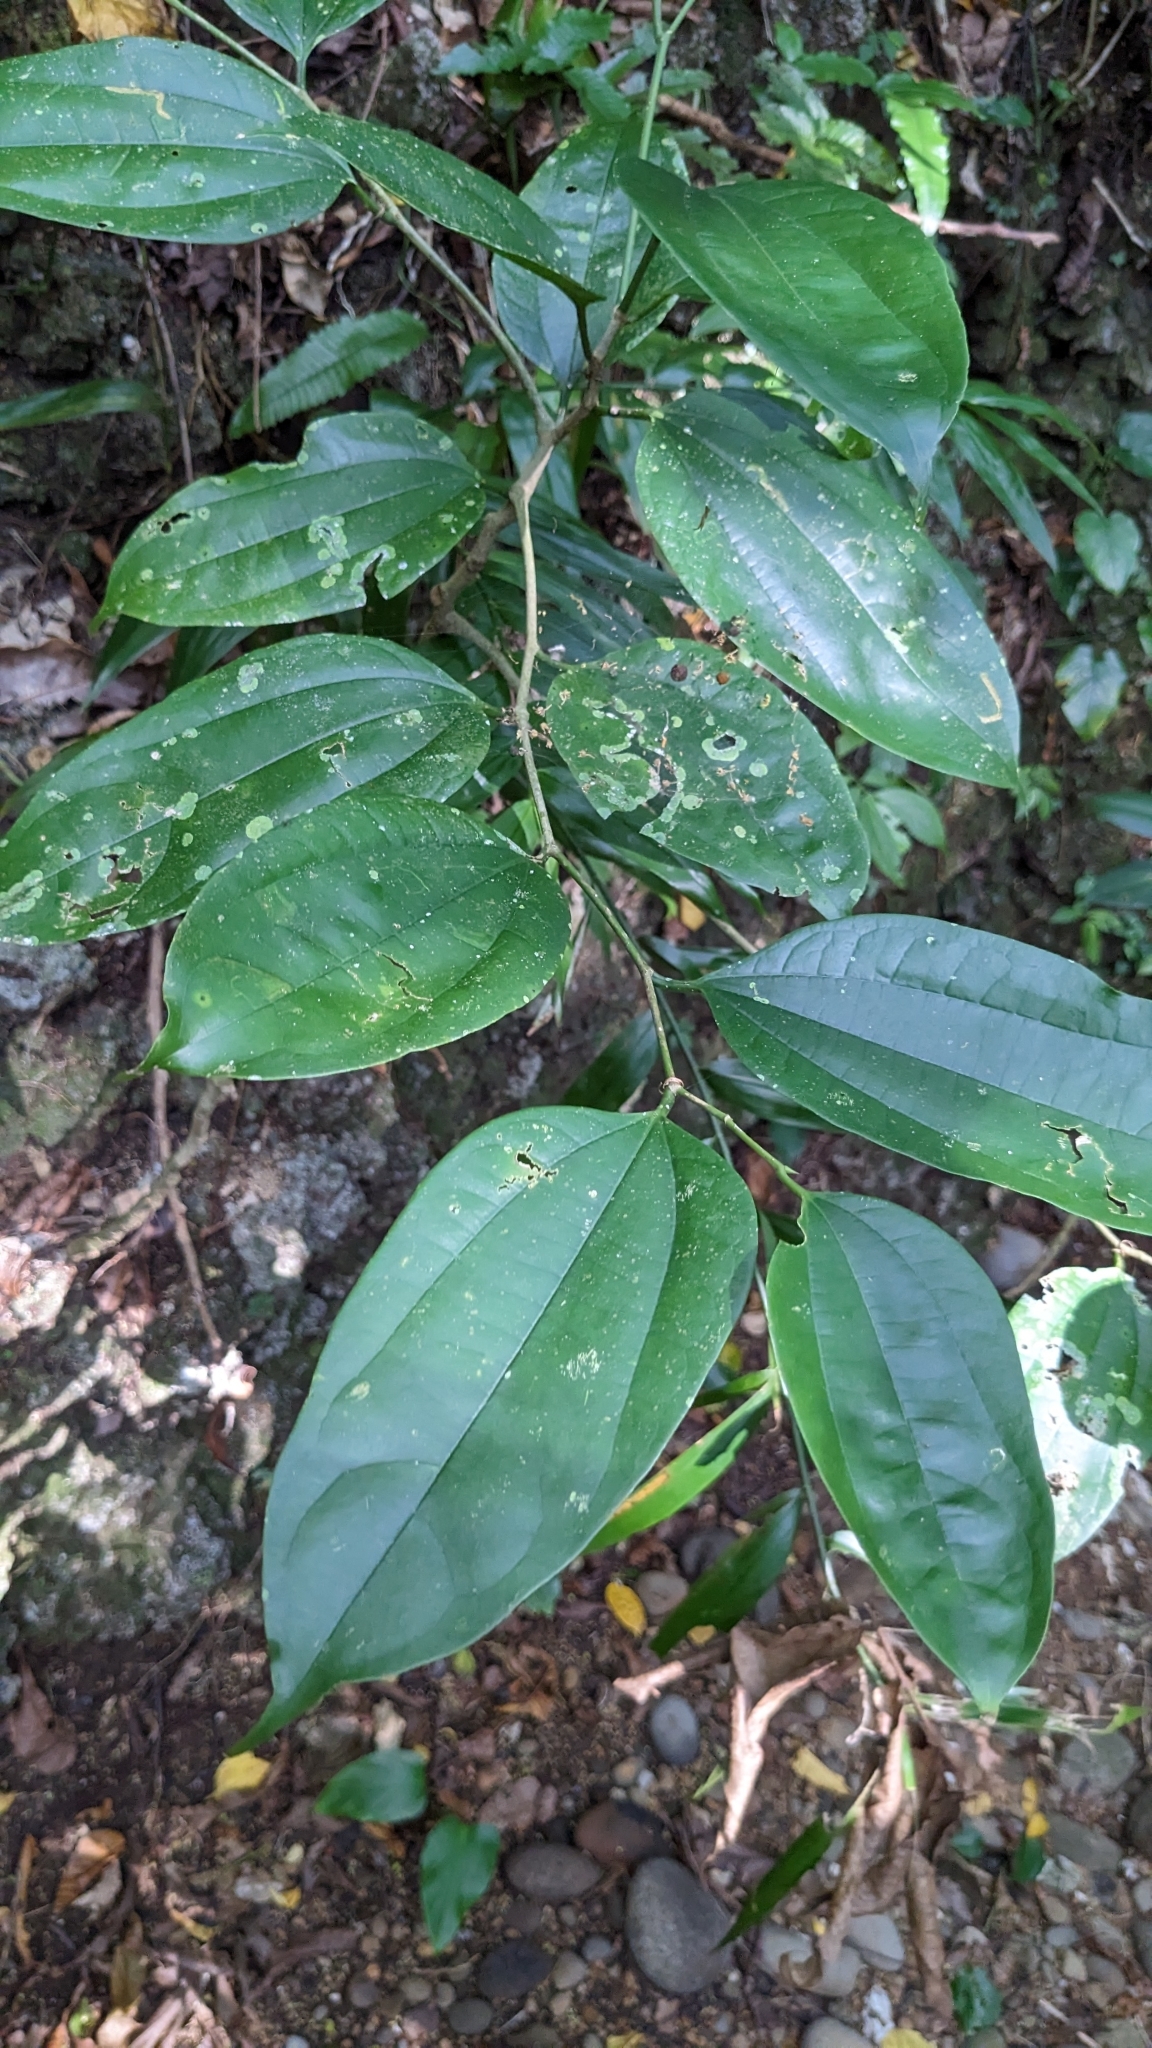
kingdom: Plantae
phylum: Tracheophyta
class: Magnoliopsida
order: Rosales
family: Cannabaceae
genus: Celtis
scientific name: Celtis philippensis
